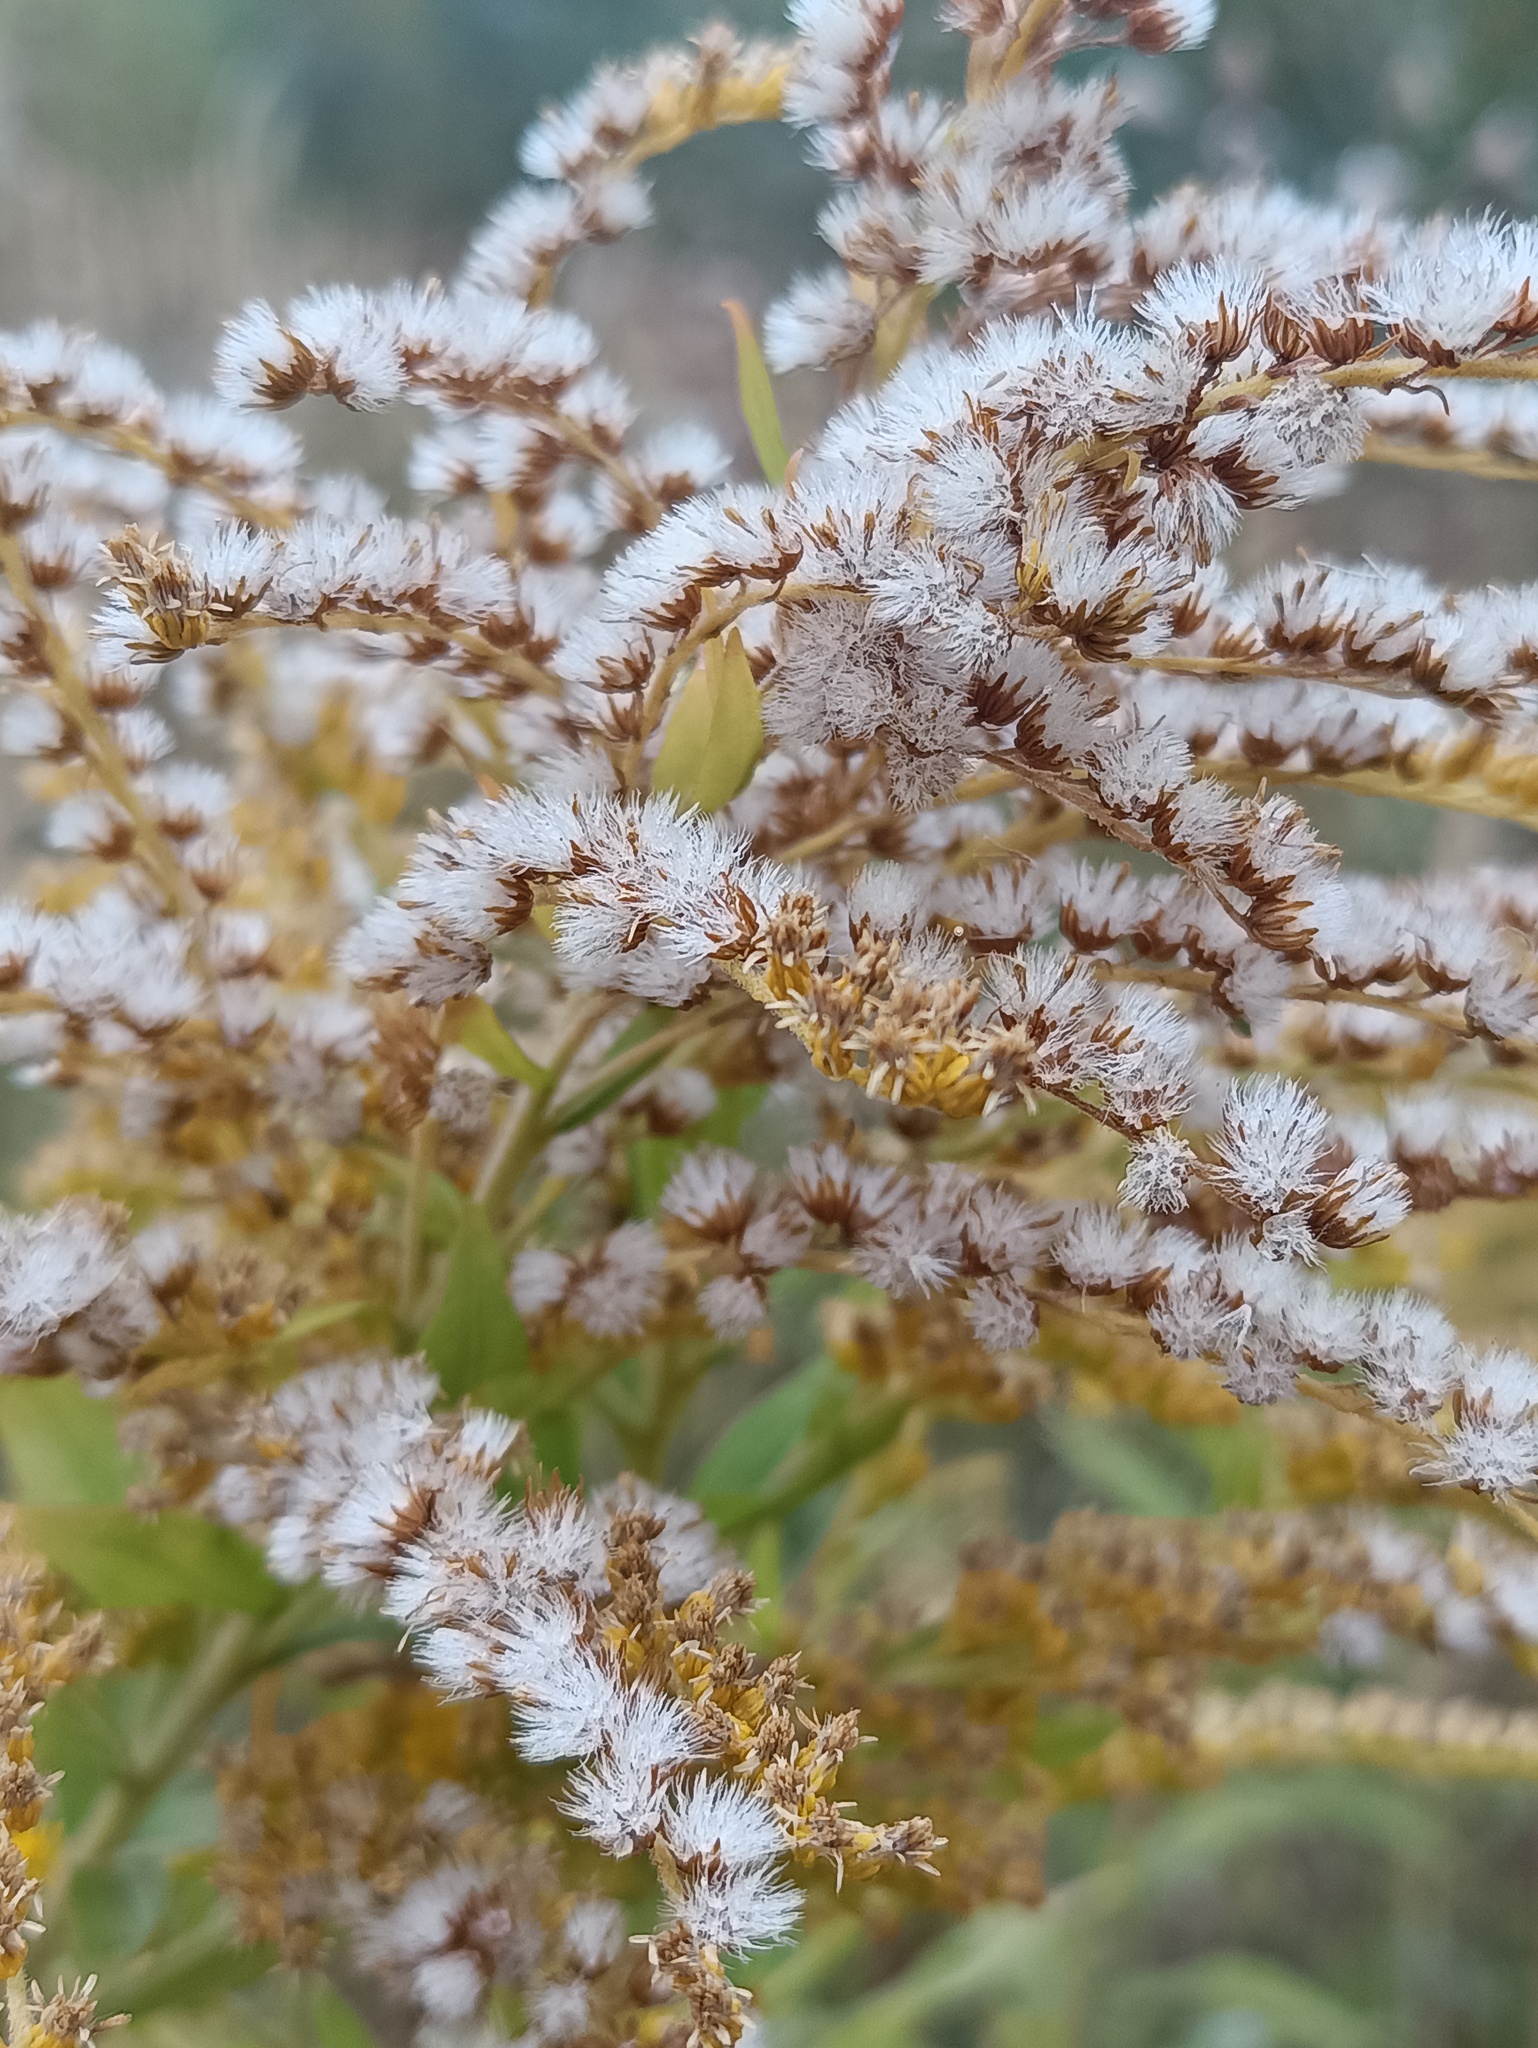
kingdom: Plantae
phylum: Tracheophyta
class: Magnoliopsida
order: Asterales
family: Asteraceae
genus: Solidago
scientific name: Solidago canadensis
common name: Canada goldenrod
